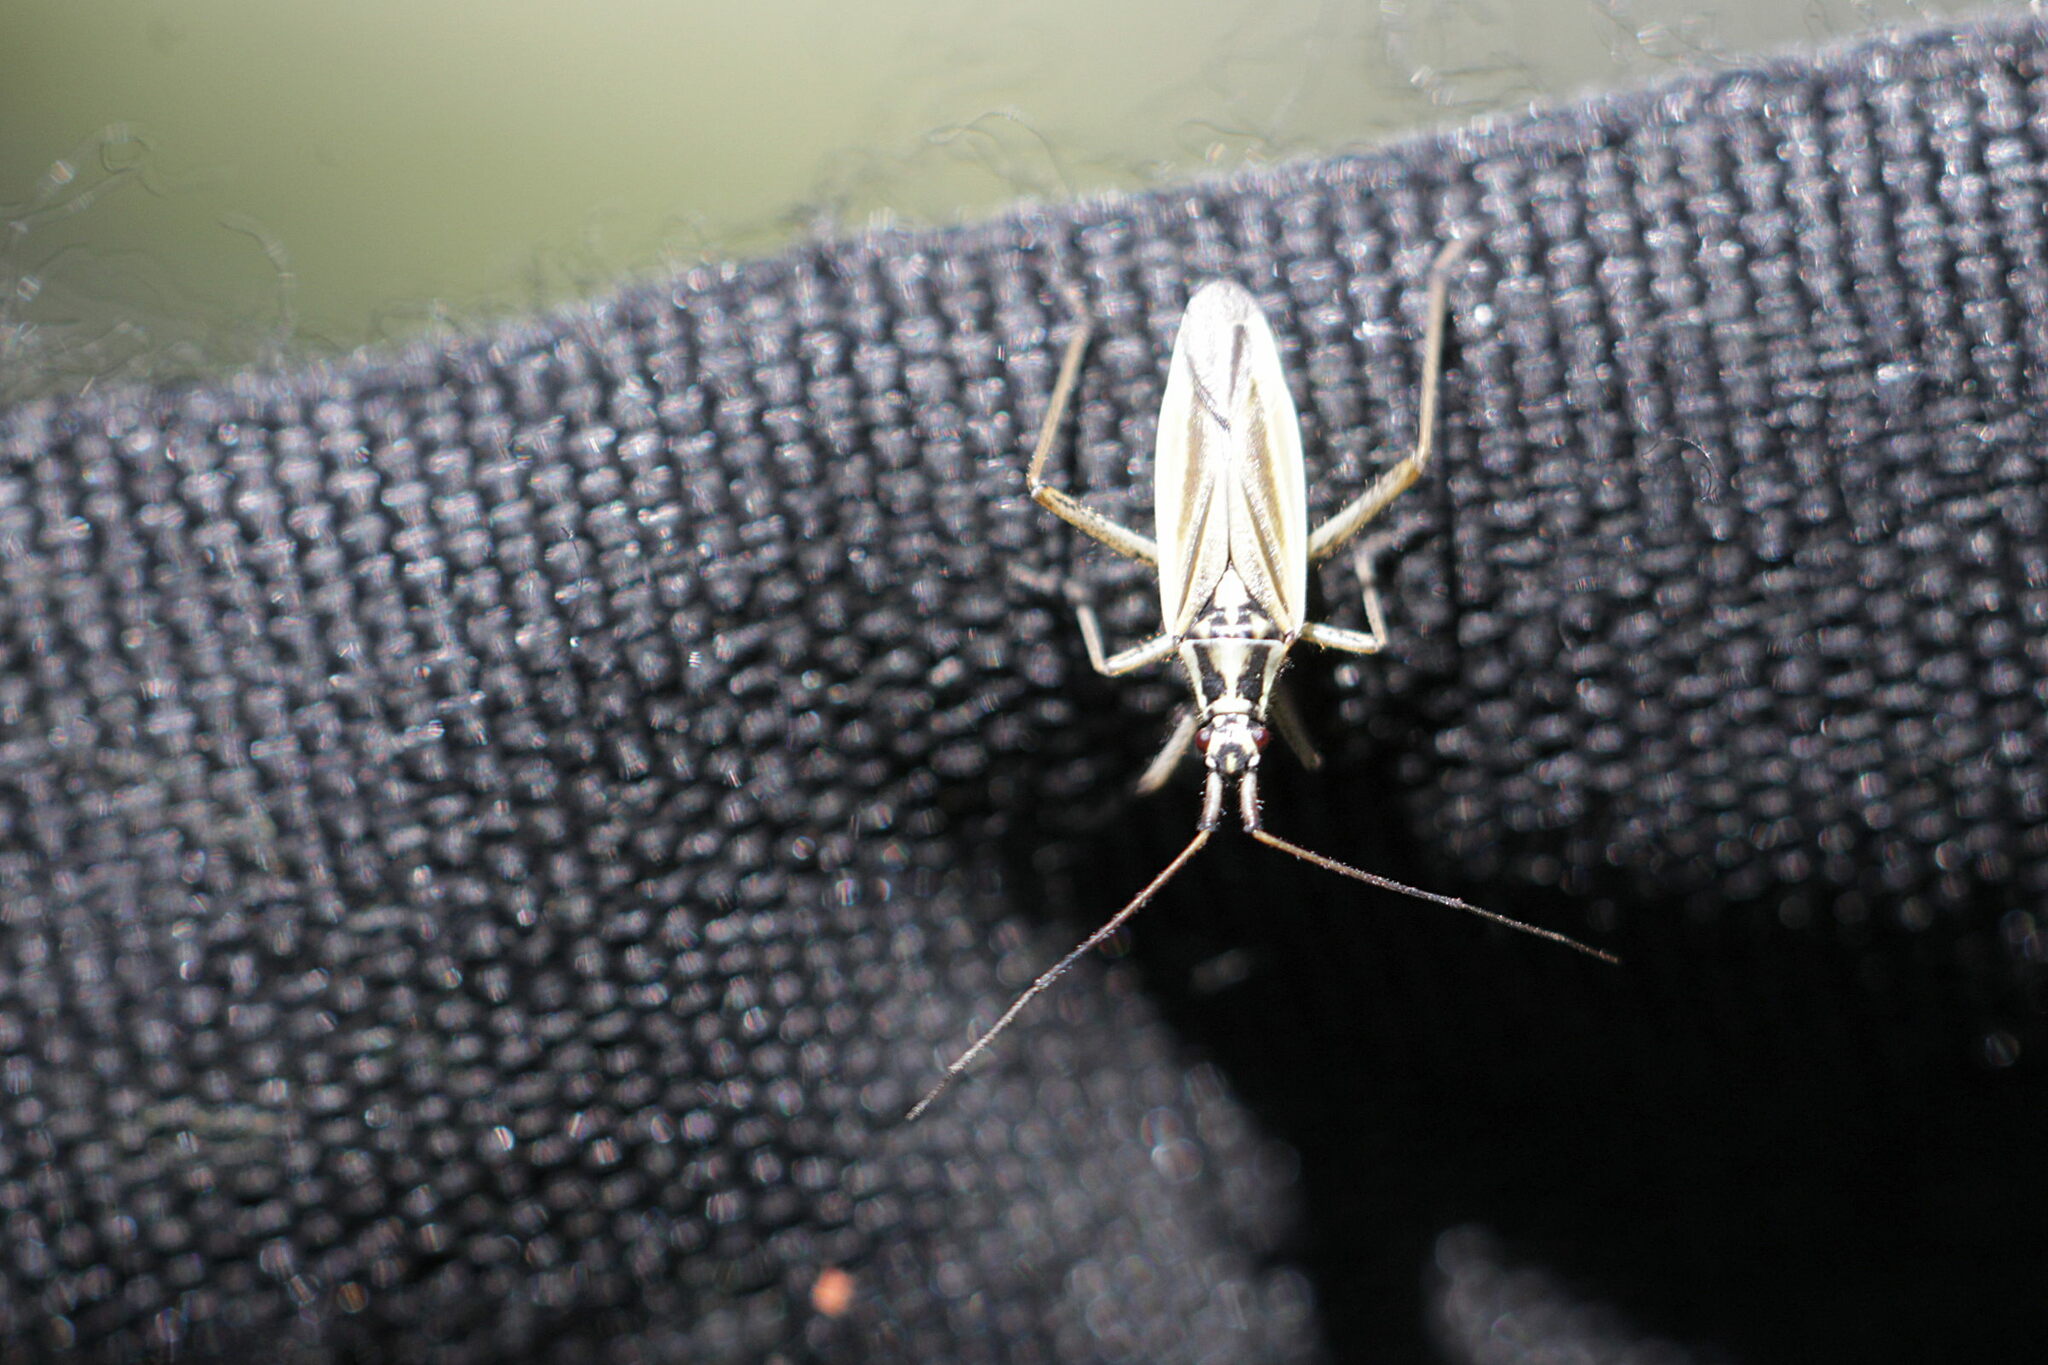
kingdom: Animalia
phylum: Arthropoda
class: Insecta
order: Hemiptera
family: Miridae
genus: Leptopterna
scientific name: Leptopterna dolabrata
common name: Meadow plant bug
